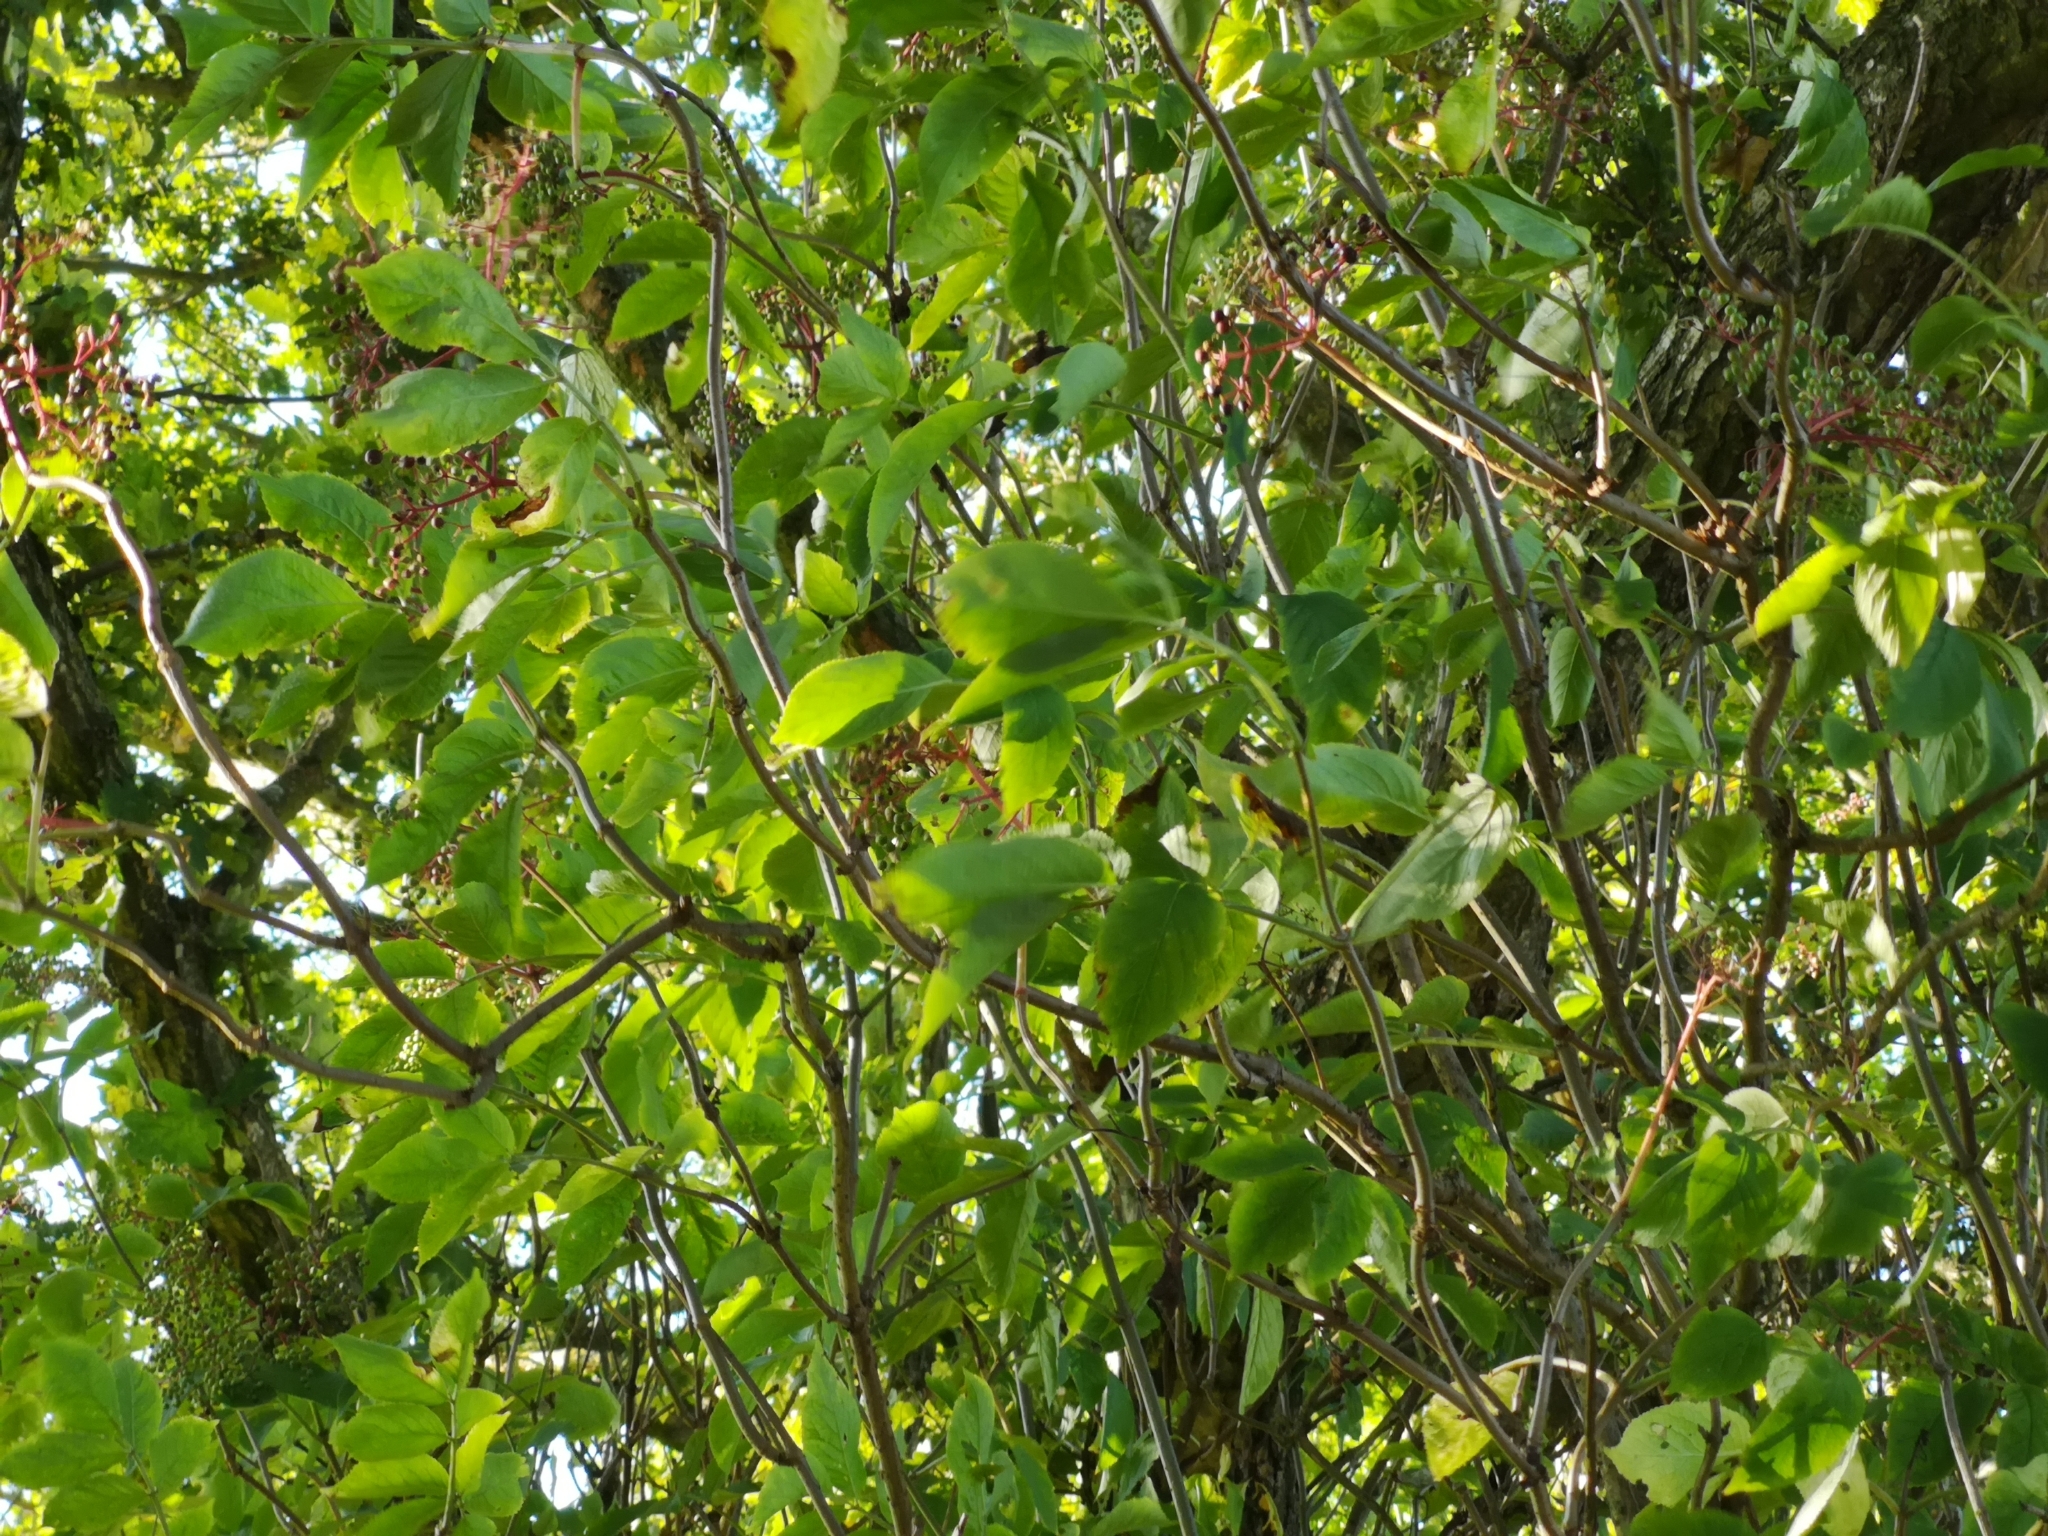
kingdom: Plantae
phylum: Tracheophyta
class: Magnoliopsida
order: Dipsacales
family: Viburnaceae
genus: Sambucus
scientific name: Sambucus nigra
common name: Elder
